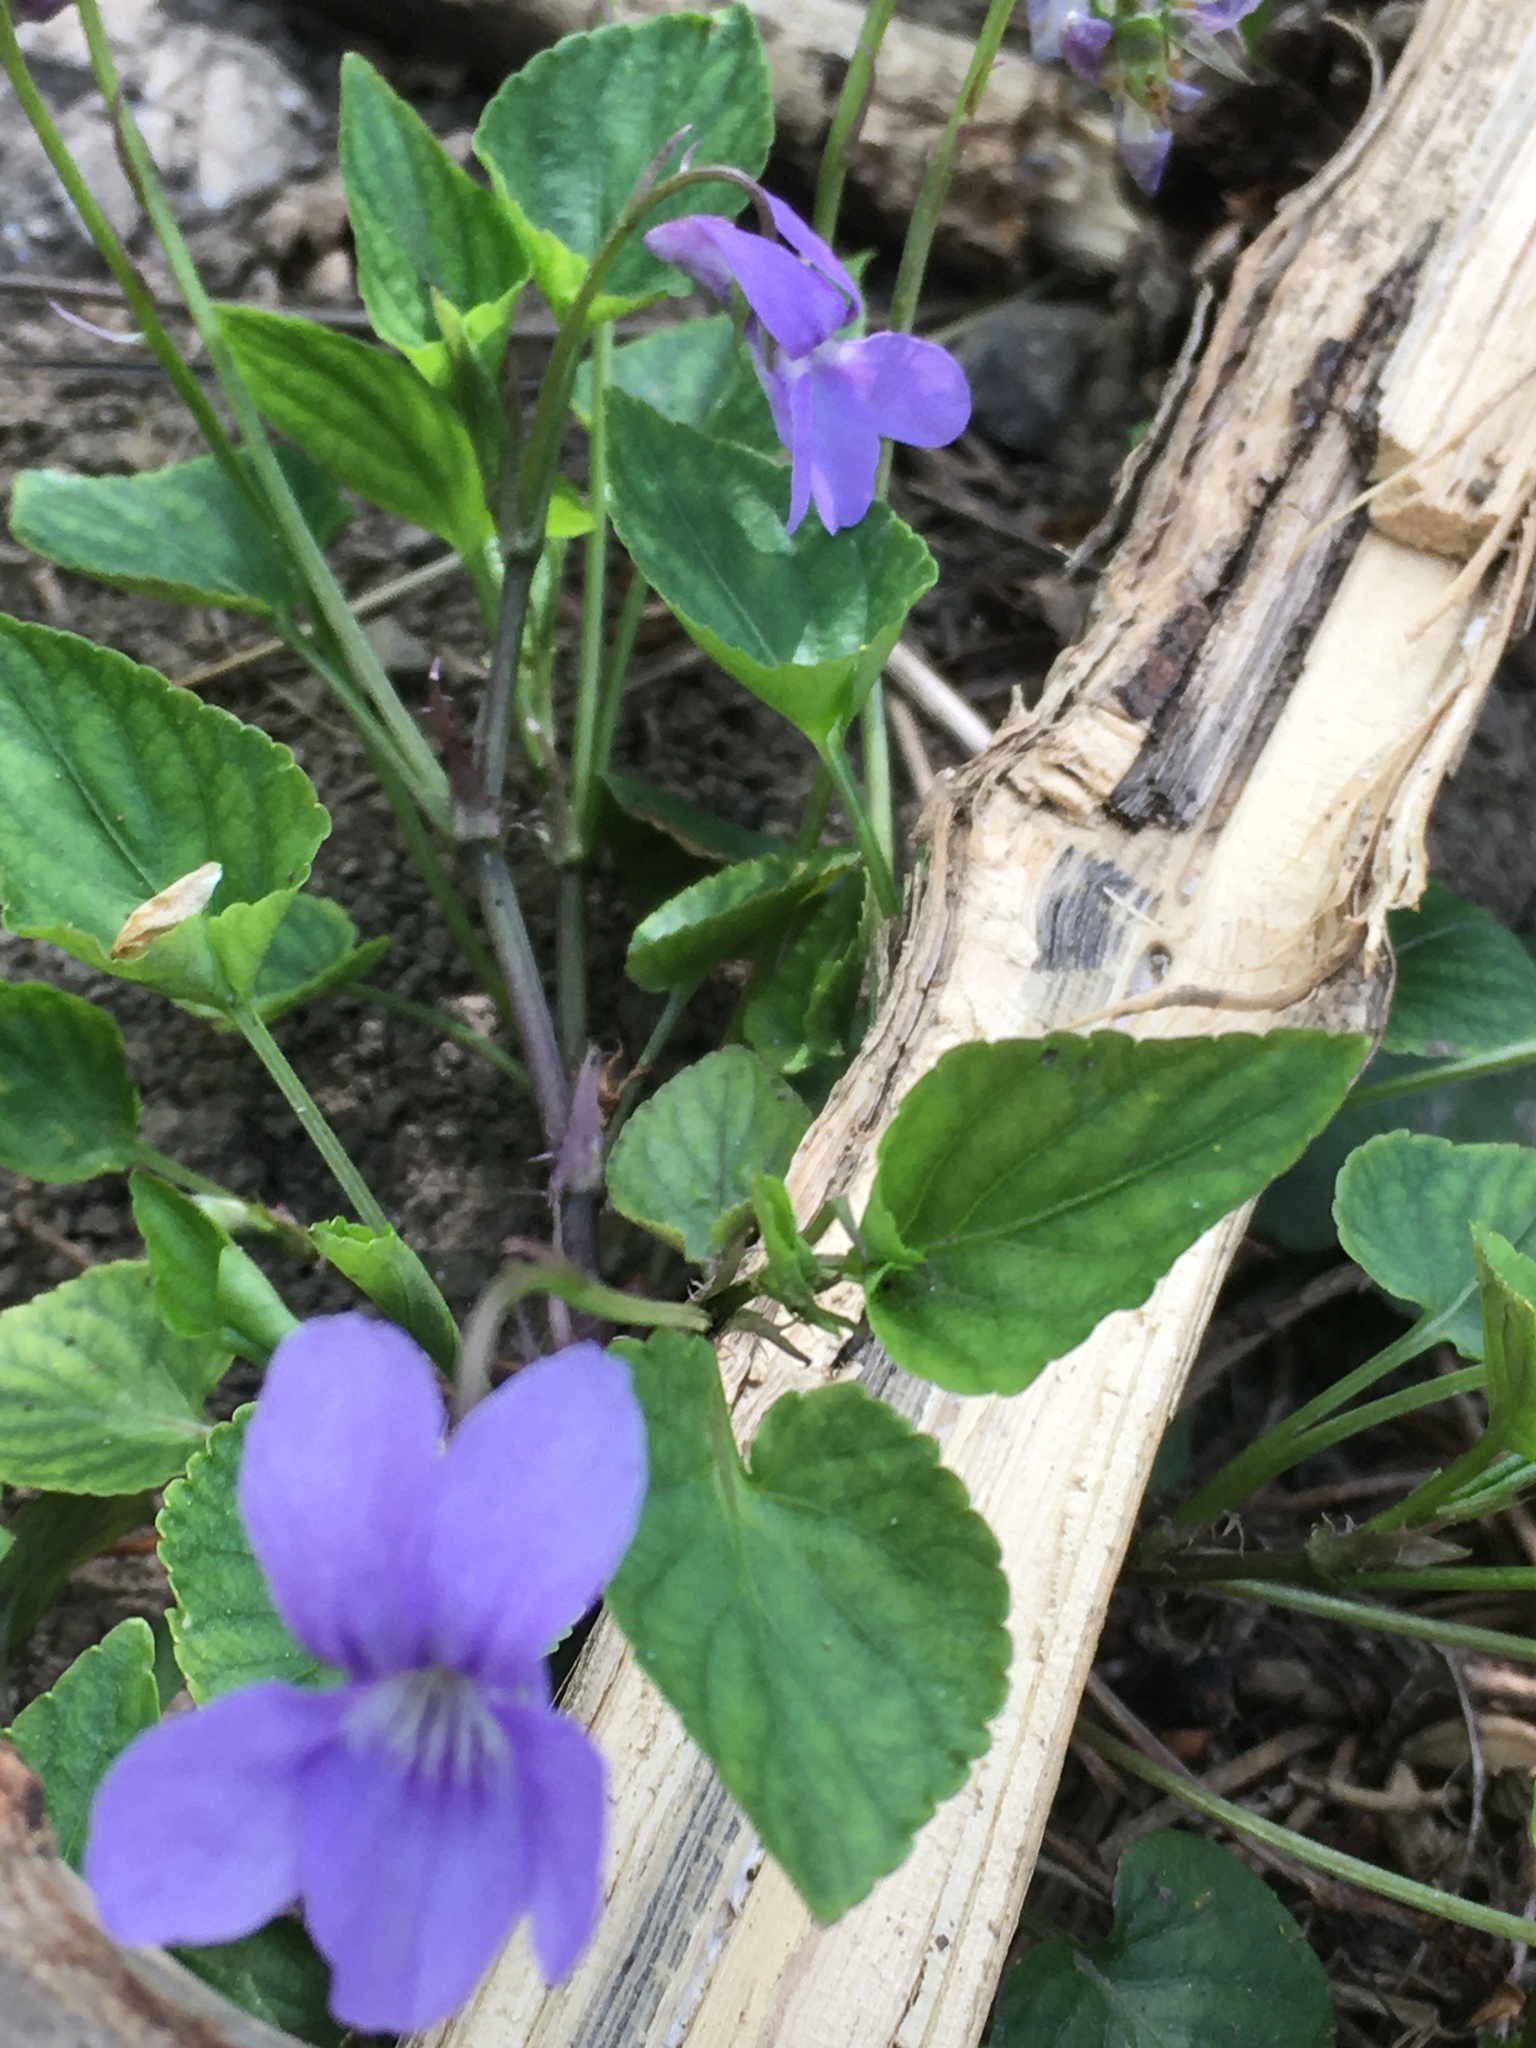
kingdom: Plantae
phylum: Tracheophyta
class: Magnoliopsida
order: Malpighiales
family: Violaceae
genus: Viola
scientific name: Viola reichenbachiana
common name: Early dog-violet
